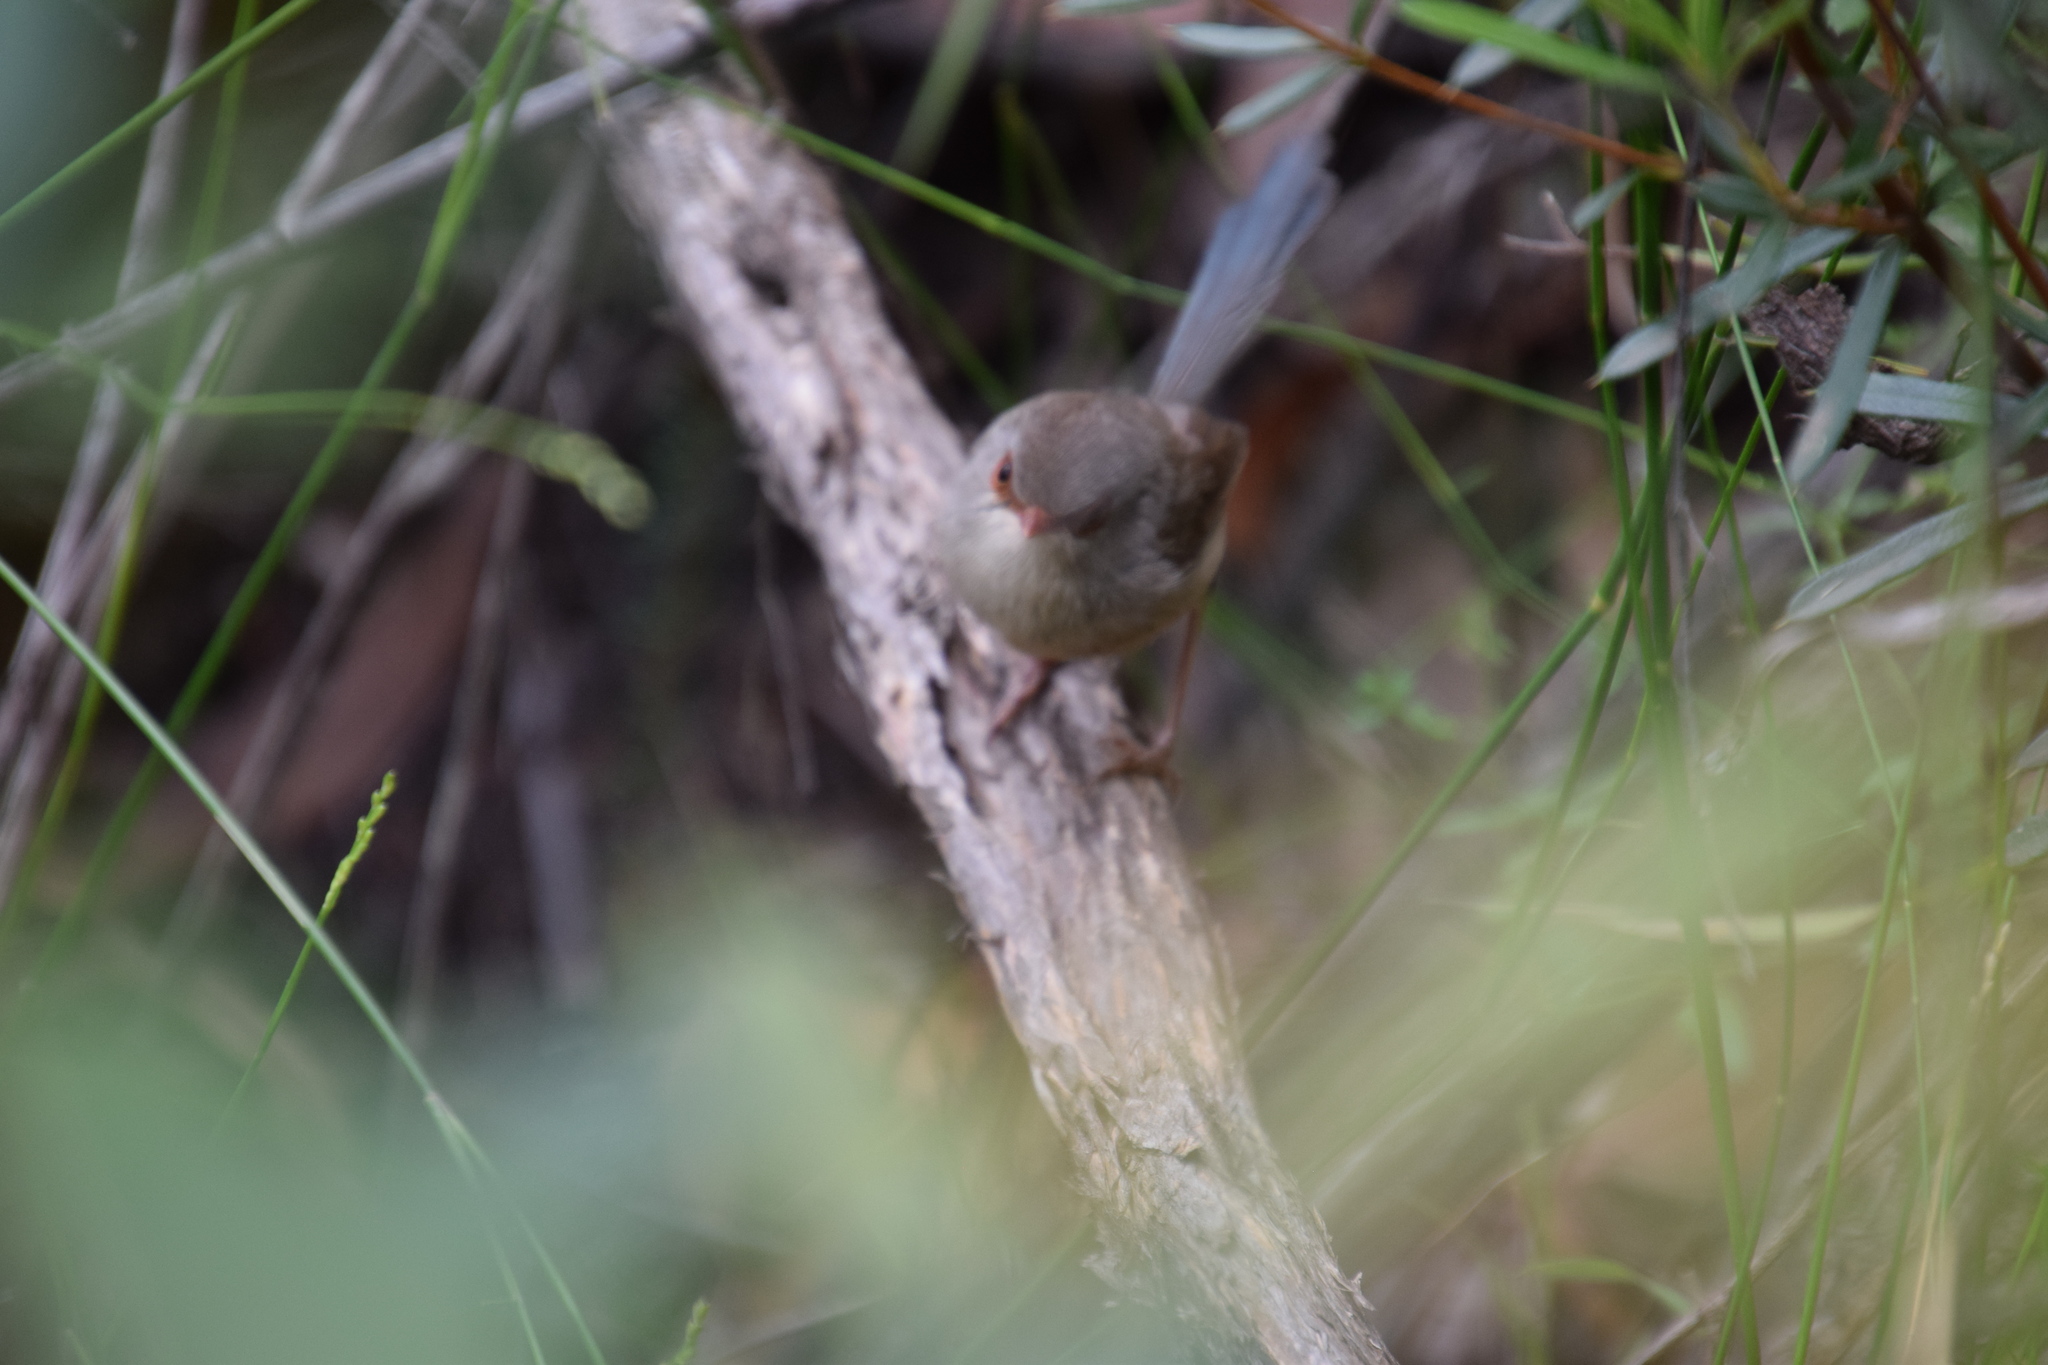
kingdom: Animalia
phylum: Chordata
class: Aves
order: Passeriformes
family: Maluridae
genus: Malurus
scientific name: Malurus lamberti
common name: Variegated fairywren
